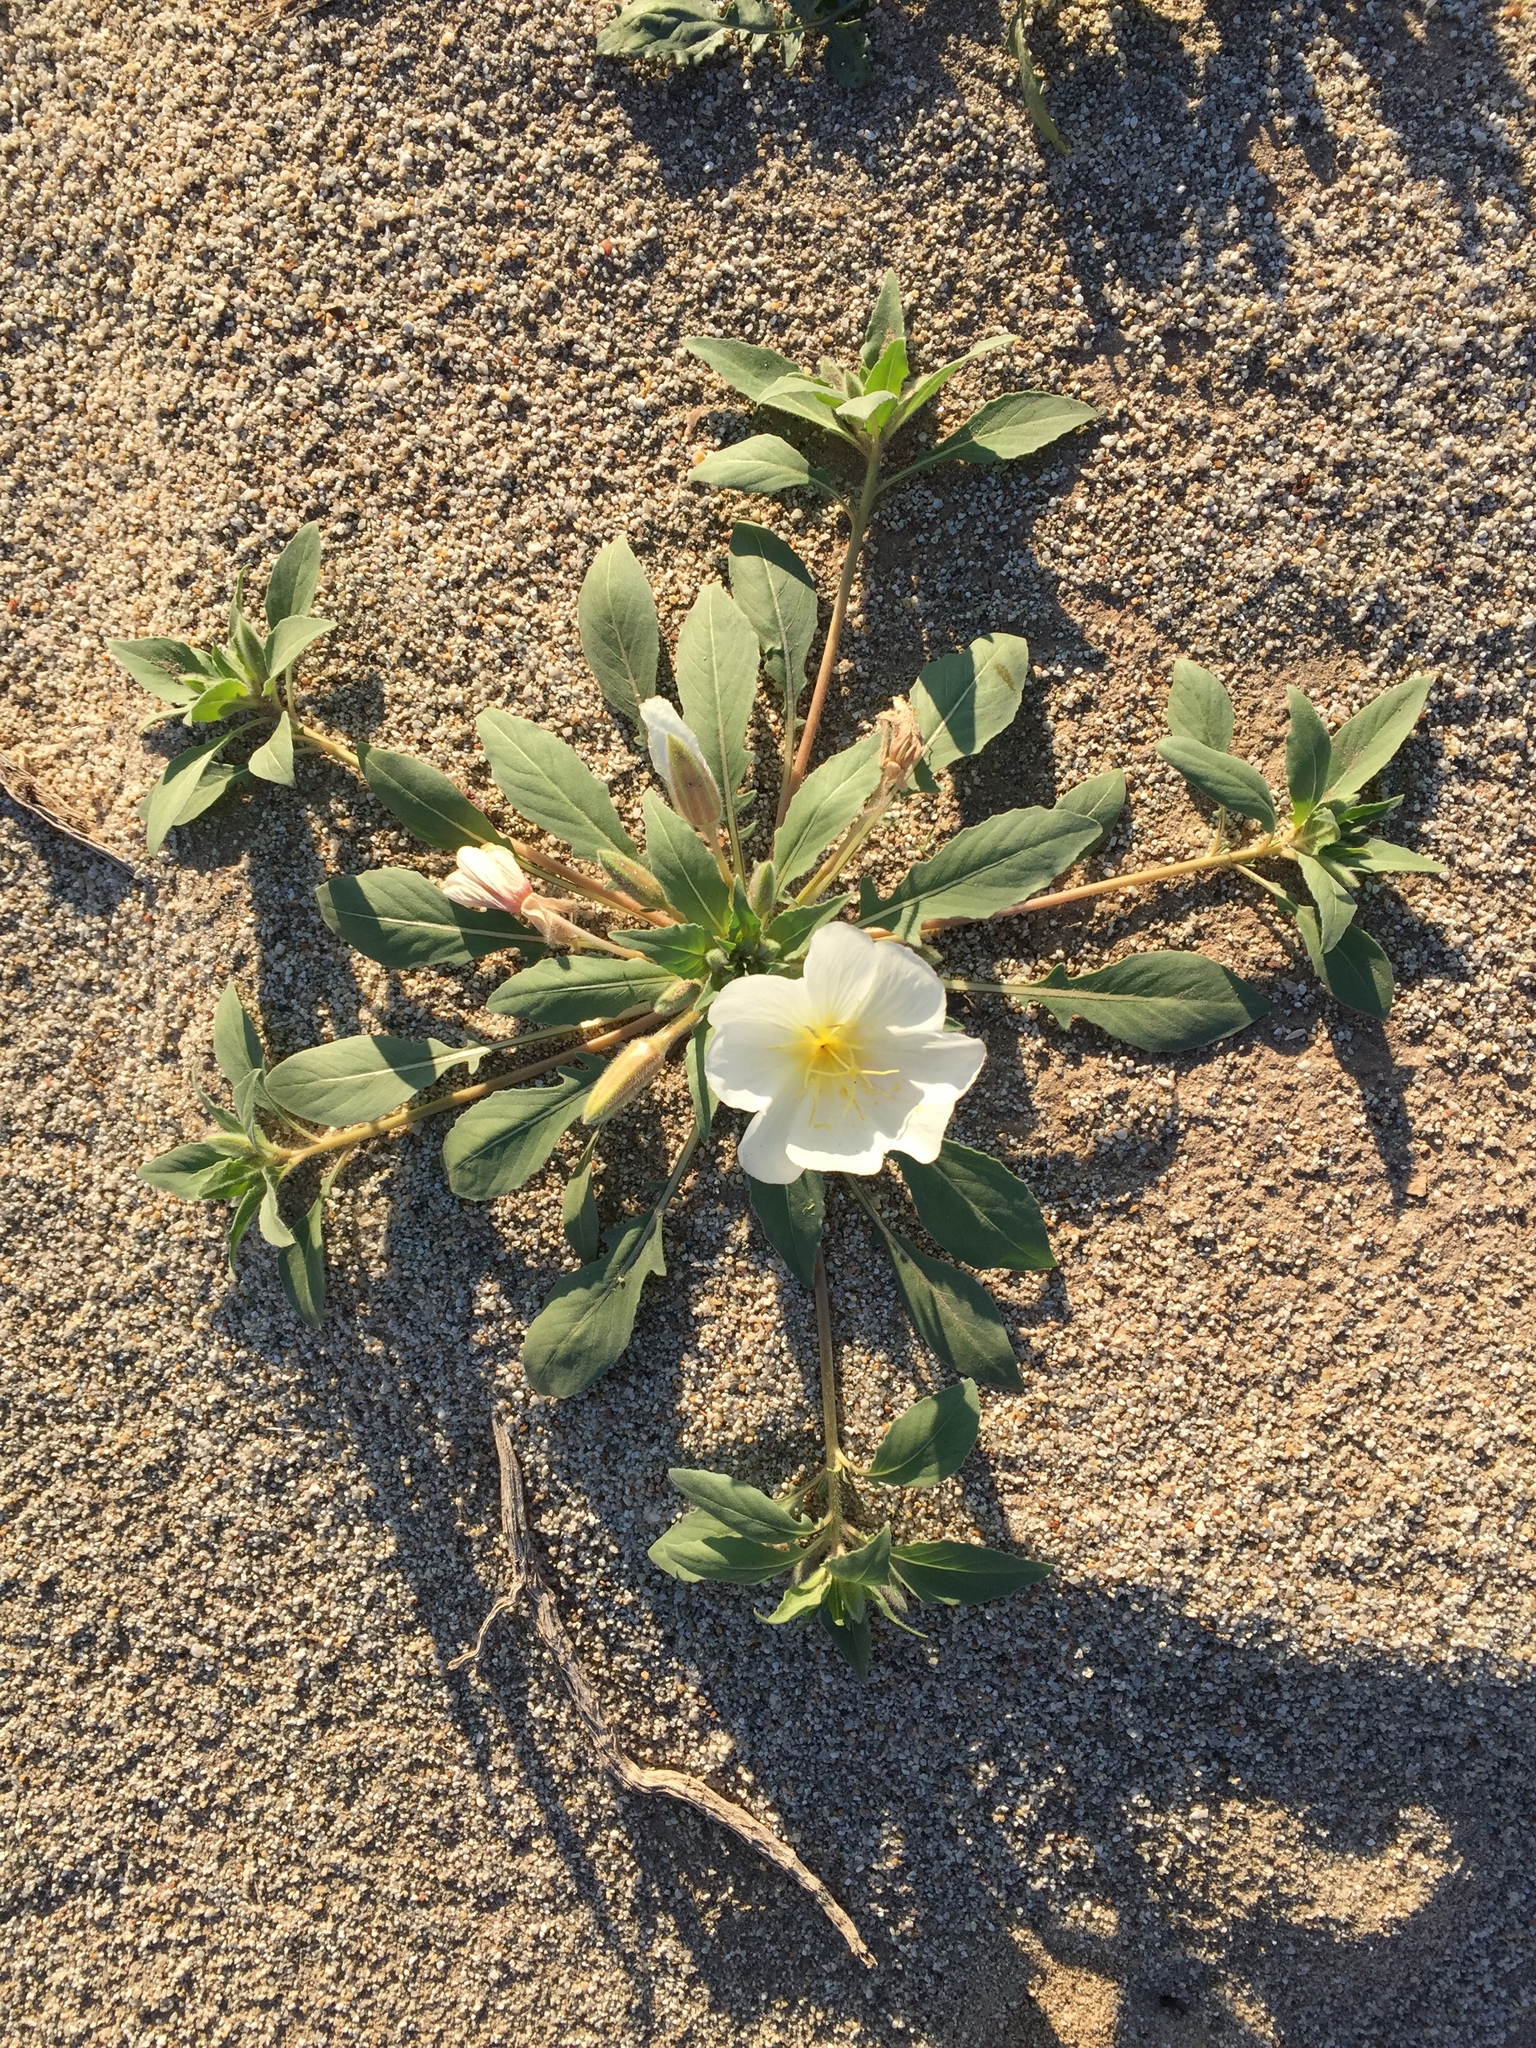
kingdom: Plantae
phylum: Tracheophyta
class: Magnoliopsida
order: Myrtales
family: Onagraceae
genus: Oenothera
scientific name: Oenothera deltoides
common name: Basket evening-primrose
